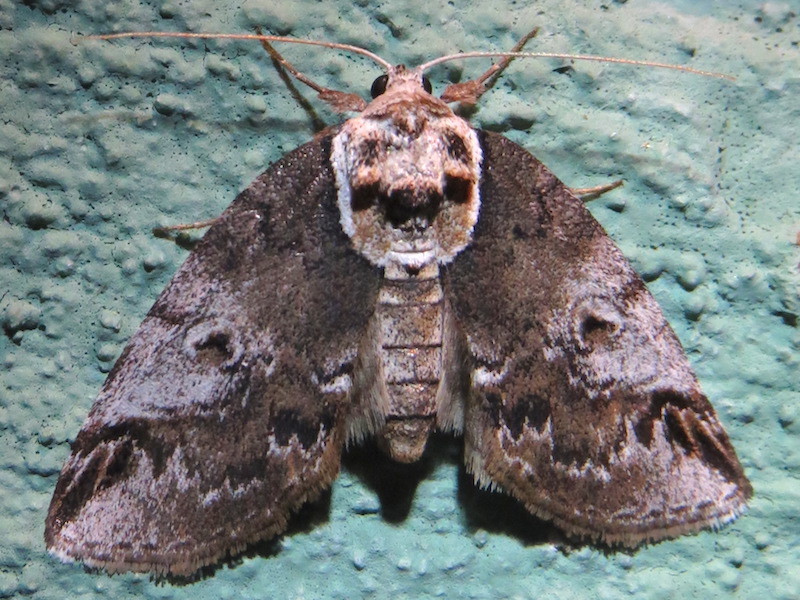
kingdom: Animalia
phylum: Arthropoda
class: Insecta
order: Lepidoptera
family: Nolidae
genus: Baileya
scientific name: Baileya ophthalmica
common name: Eyed baileya moth
